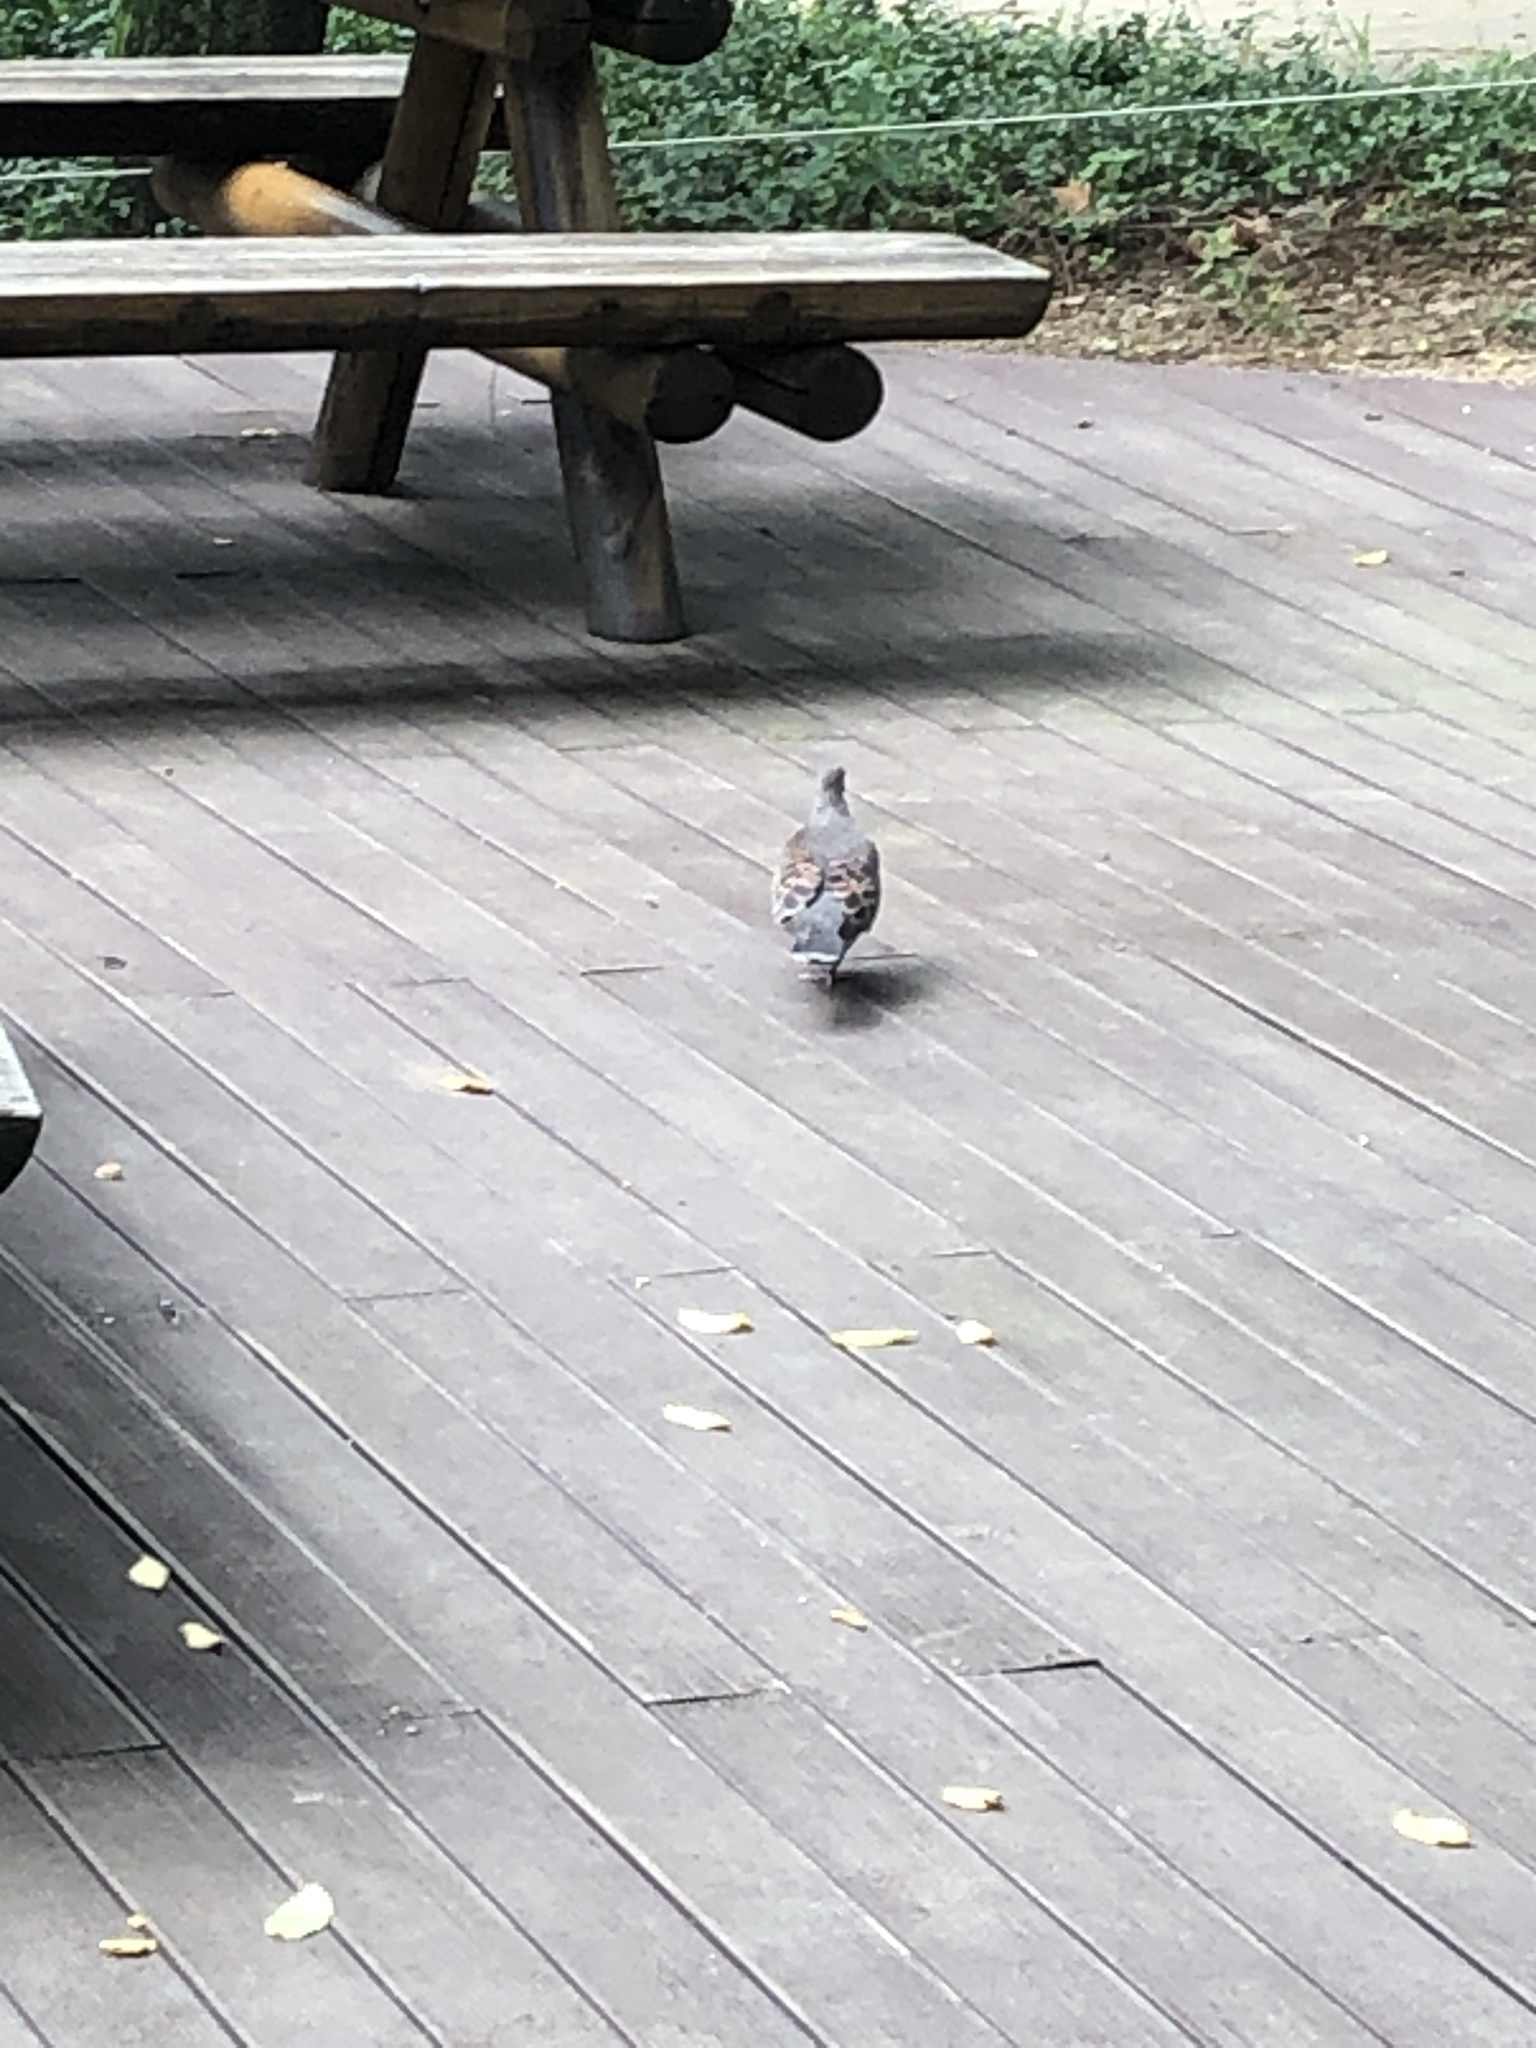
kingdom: Animalia
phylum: Chordata
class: Aves
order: Columbiformes
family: Columbidae
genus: Streptopelia
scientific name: Streptopelia orientalis
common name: Oriental turtle dove
